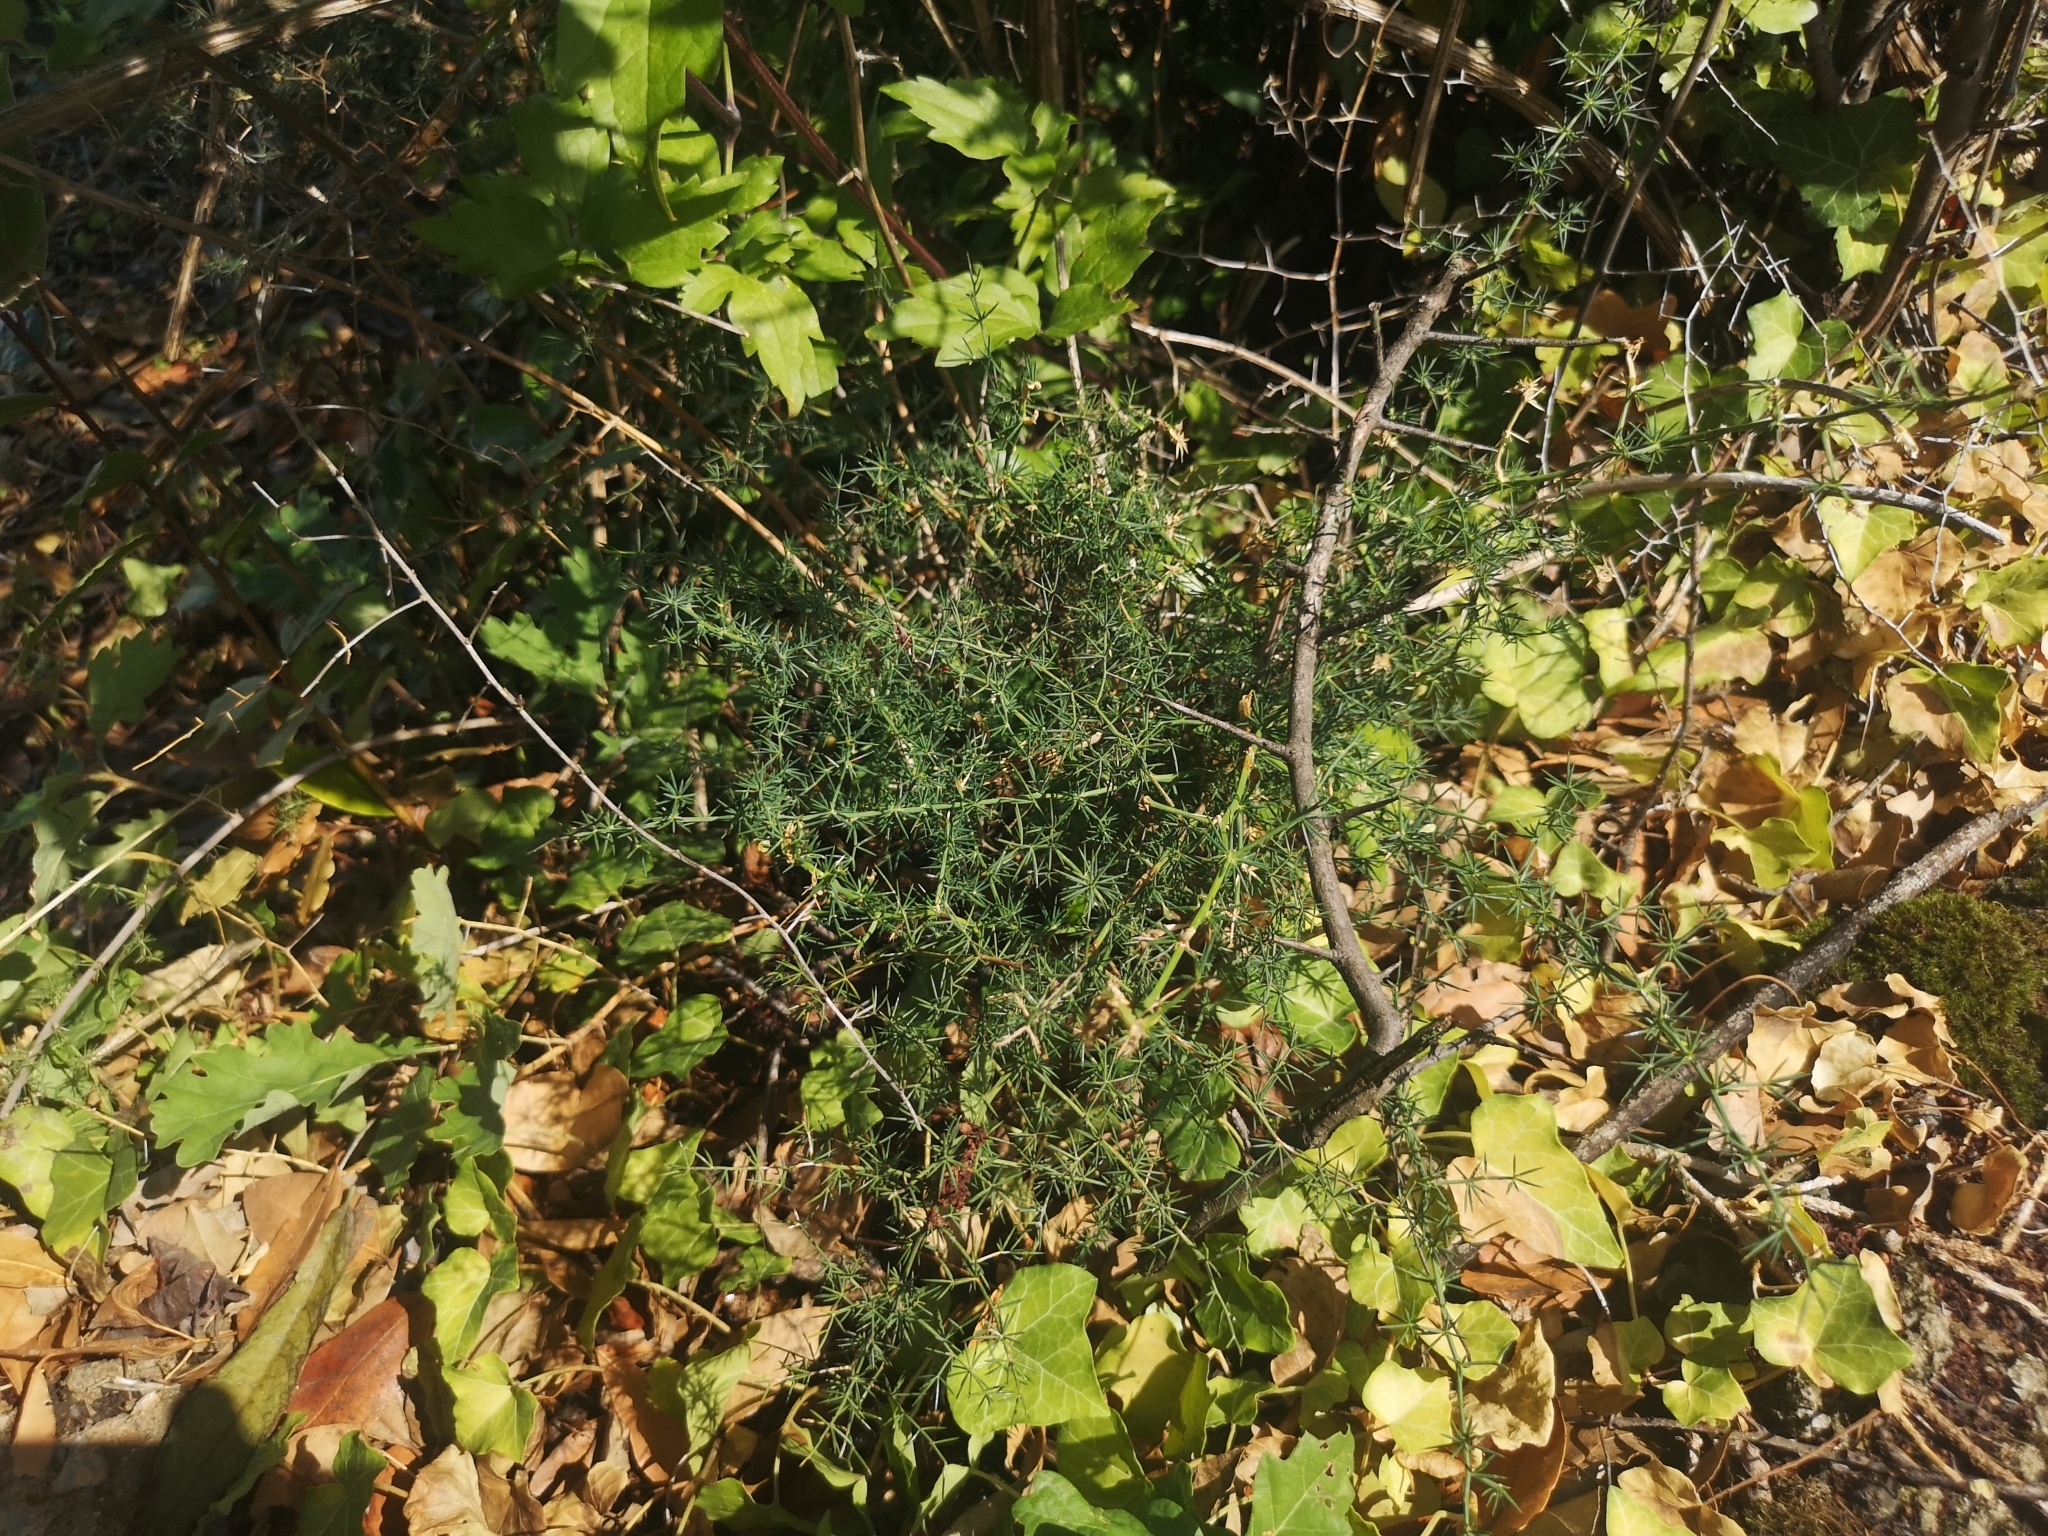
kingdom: Plantae
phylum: Tracheophyta
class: Liliopsida
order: Asparagales
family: Asparagaceae
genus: Asparagus
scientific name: Asparagus acutifolius
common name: Wild asparagus
